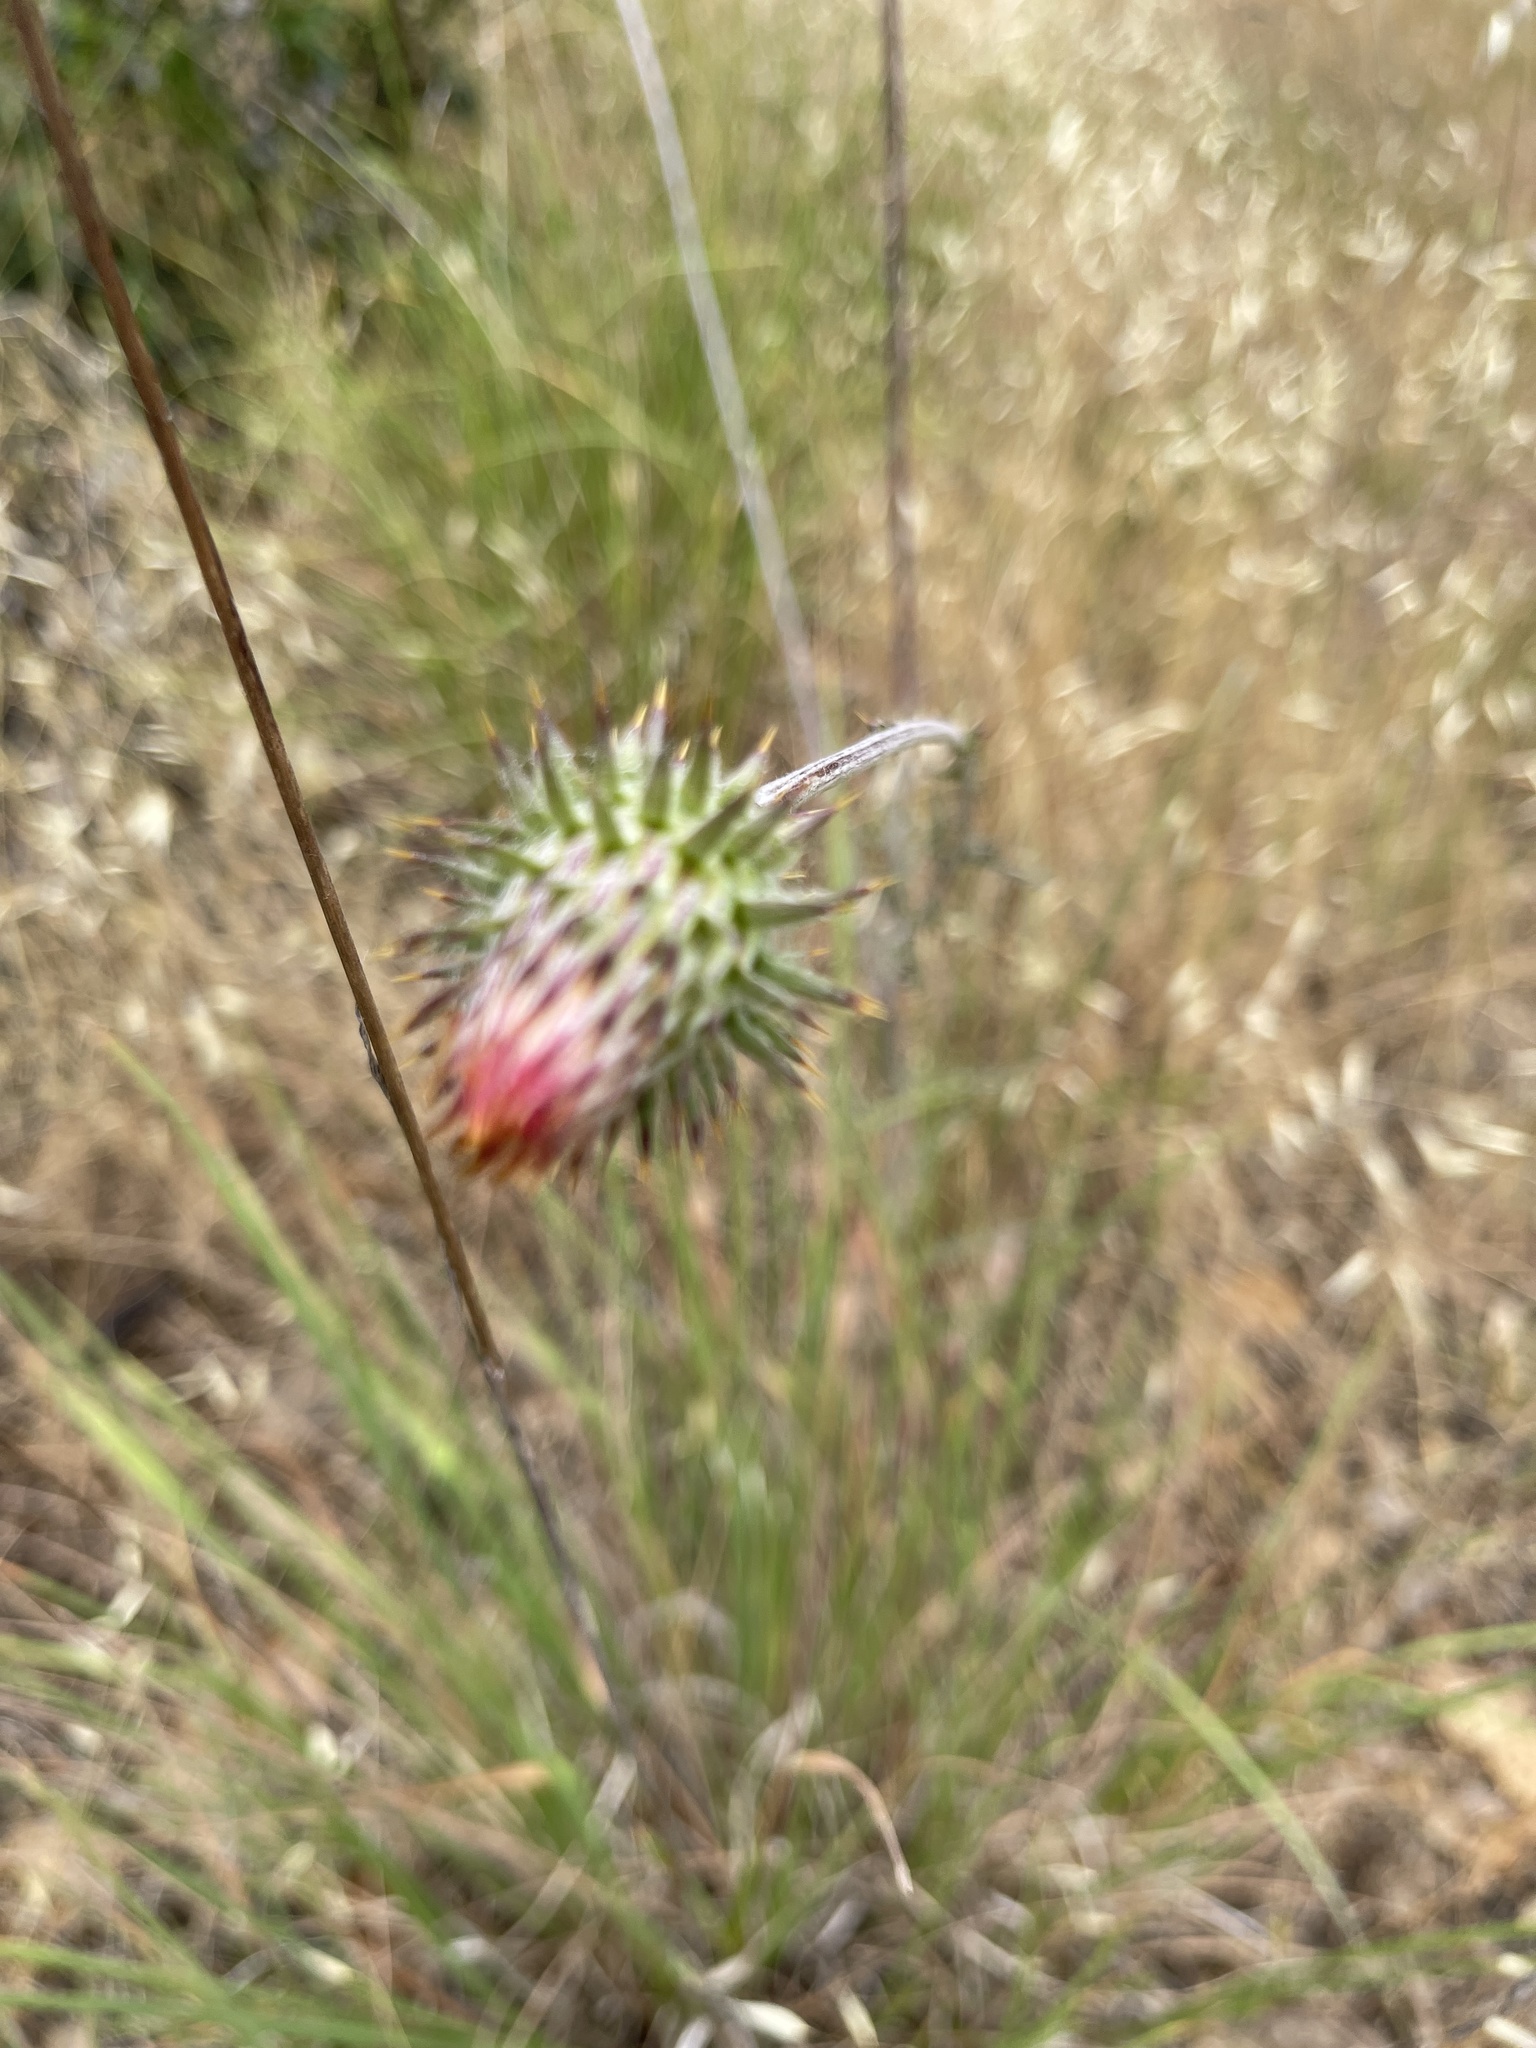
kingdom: Plantae
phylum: Tracheophyta
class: Magnoliopsida
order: Asterales
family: Asteraceae
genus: Cirsium
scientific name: Cirsium occidentale
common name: Western thistle
